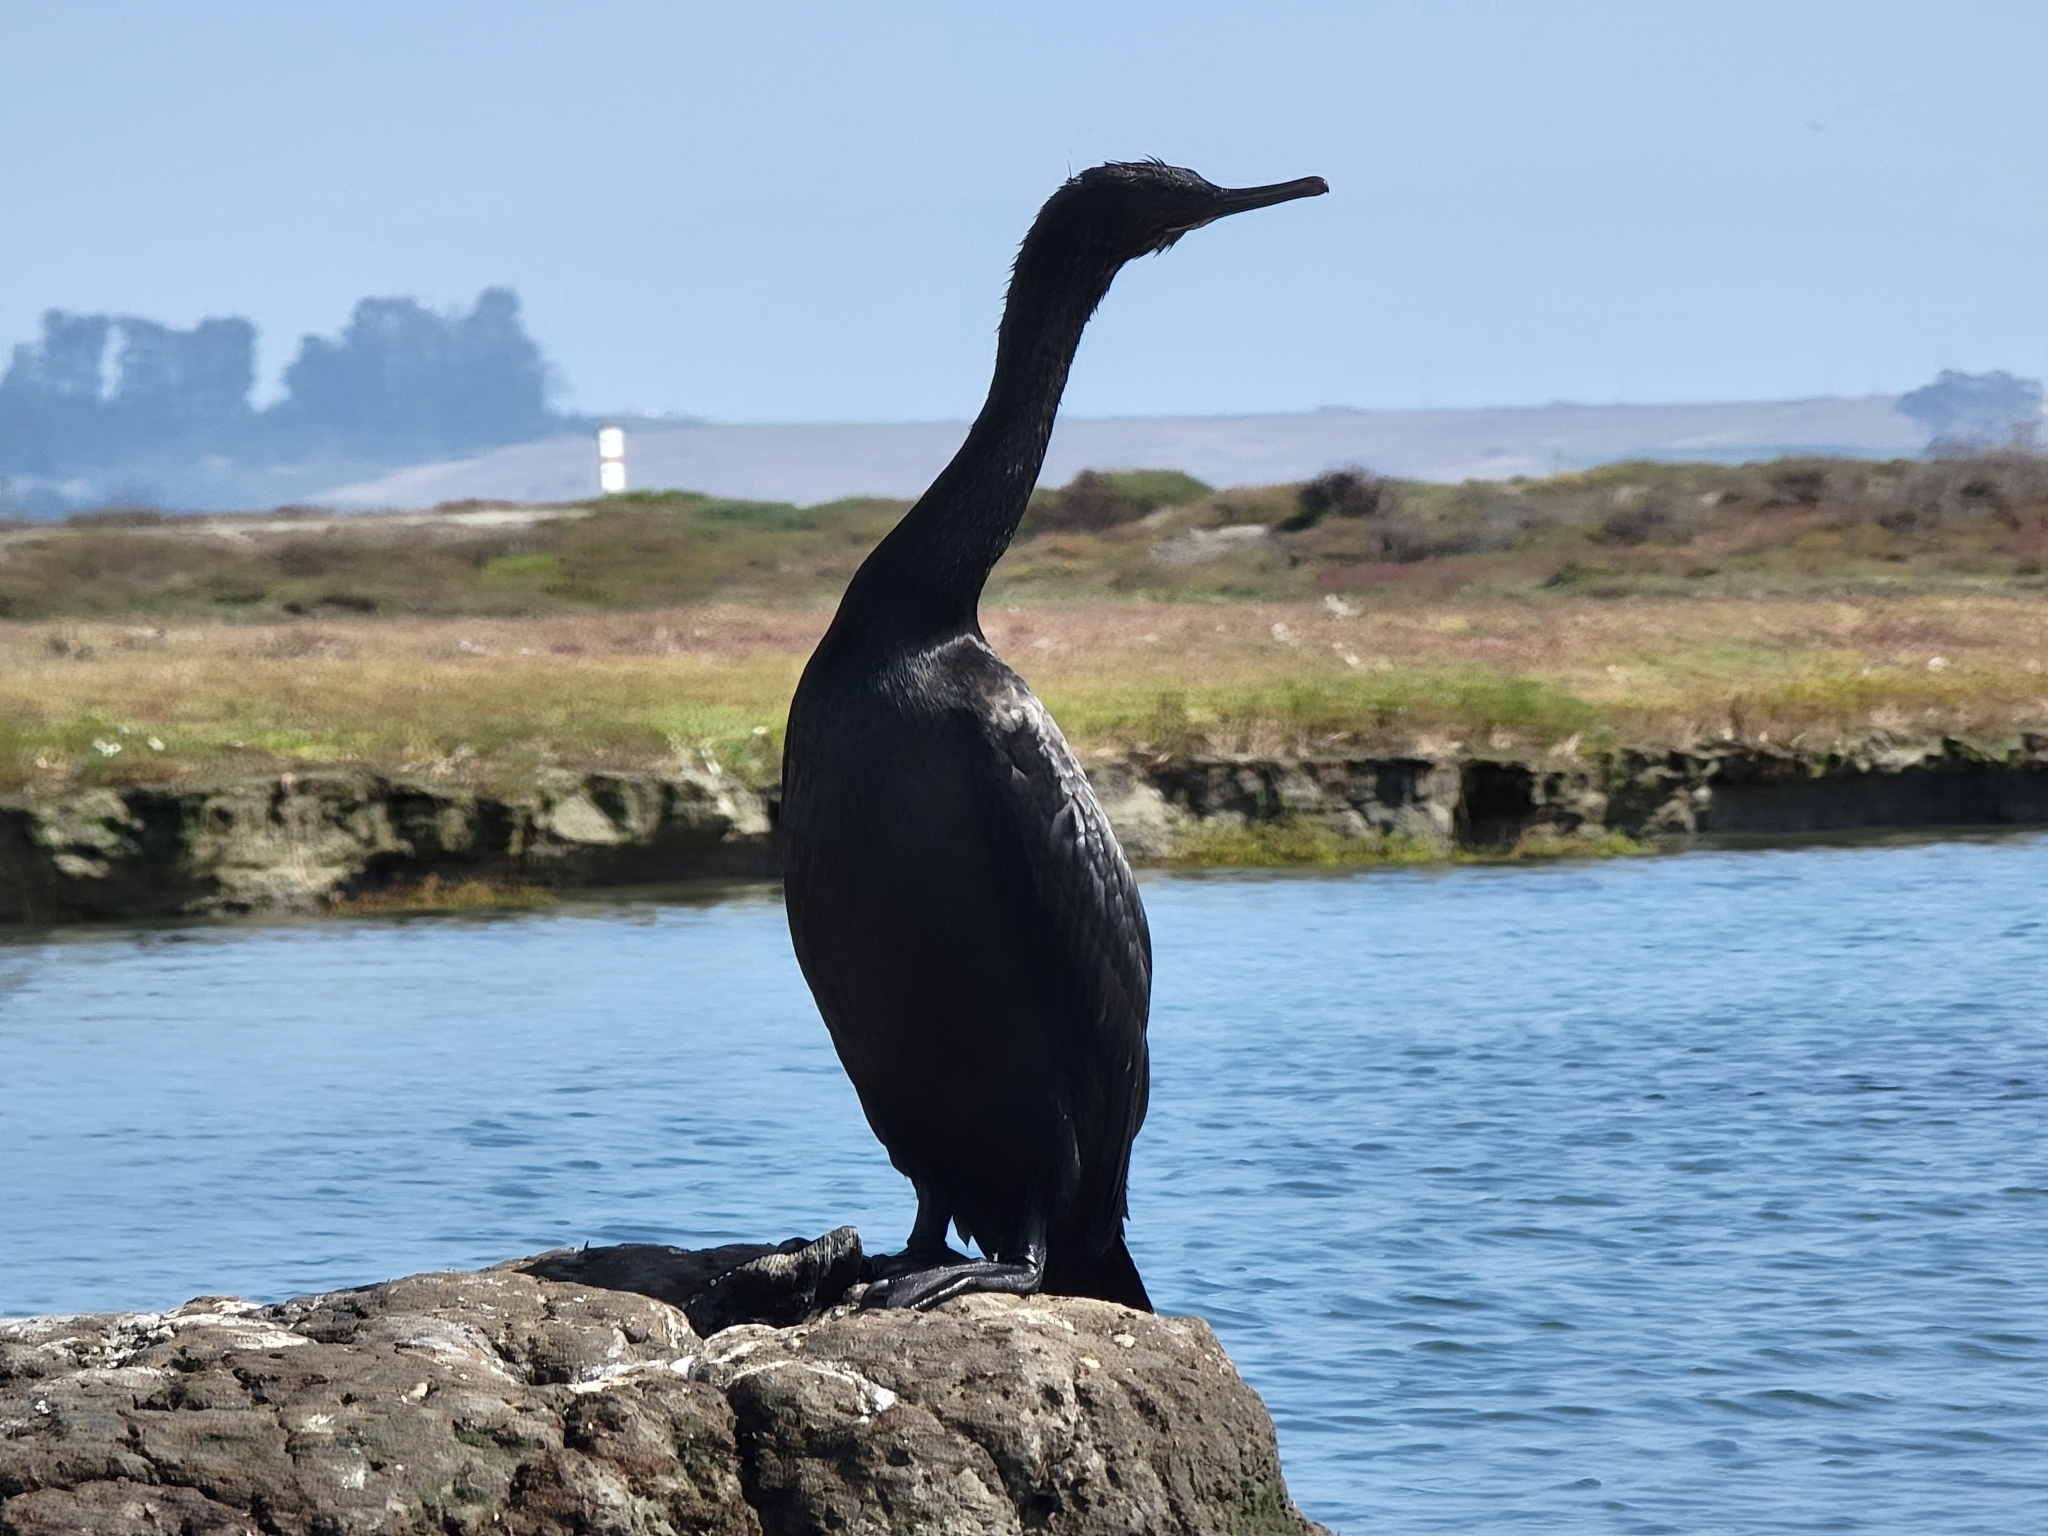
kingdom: Animalia
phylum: Chordata
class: Aves
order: Suliformes
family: Phalacrocoracidae
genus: Phalacrocorax
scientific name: Phalacrocorax pelagicus
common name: Pelagic cormorant
